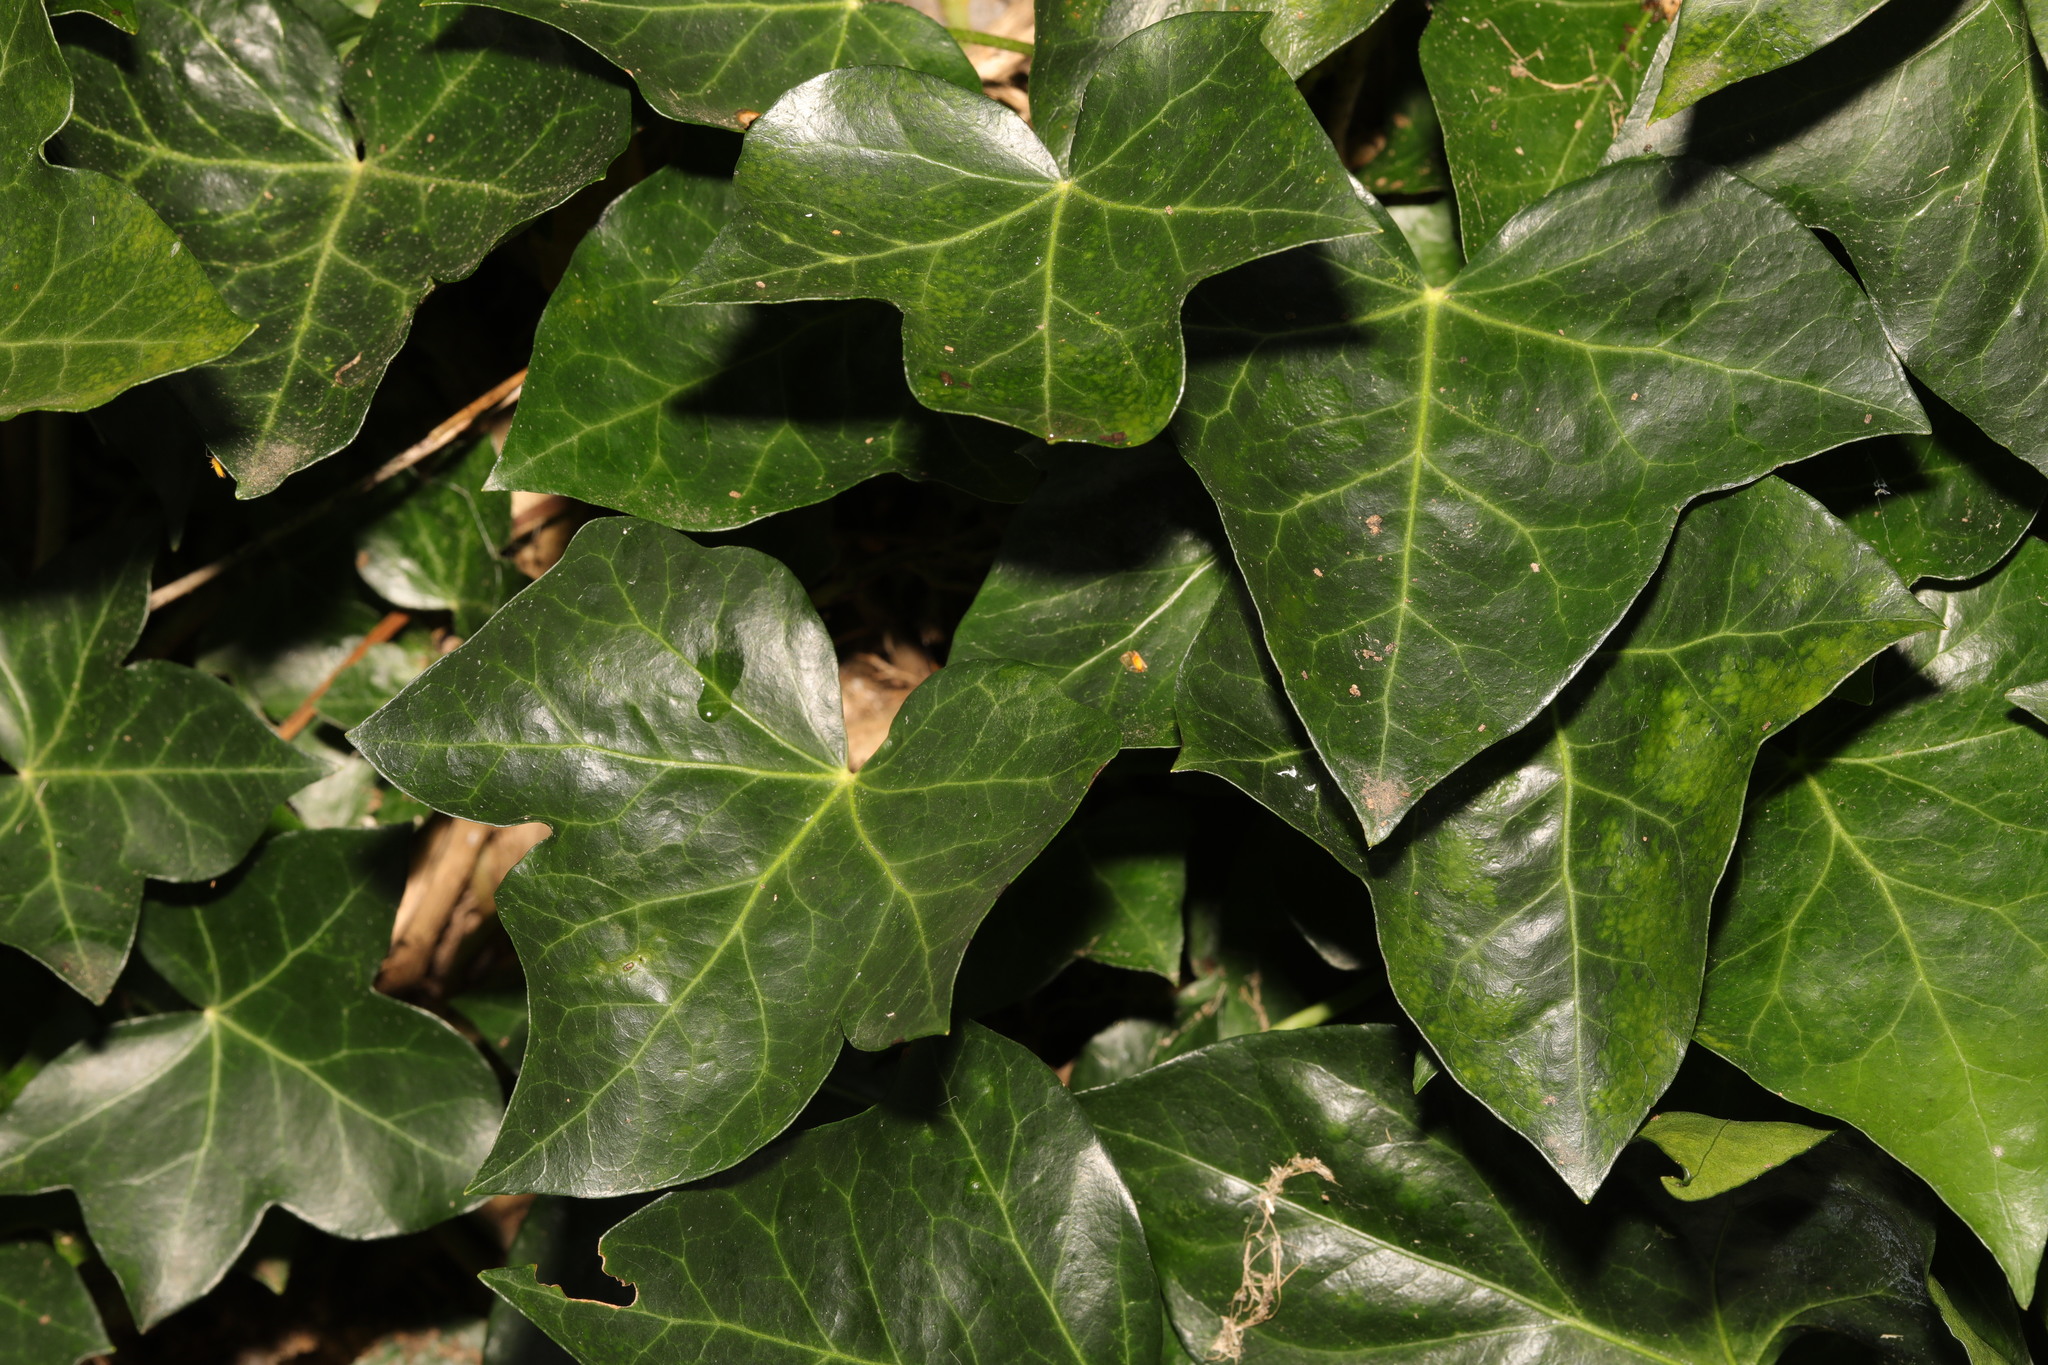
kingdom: Plantae
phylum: Tracheophyta
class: Magnoliopsida
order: Apiales
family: Araliaceae
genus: Hedera
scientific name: Hedera helix
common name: Ivy
